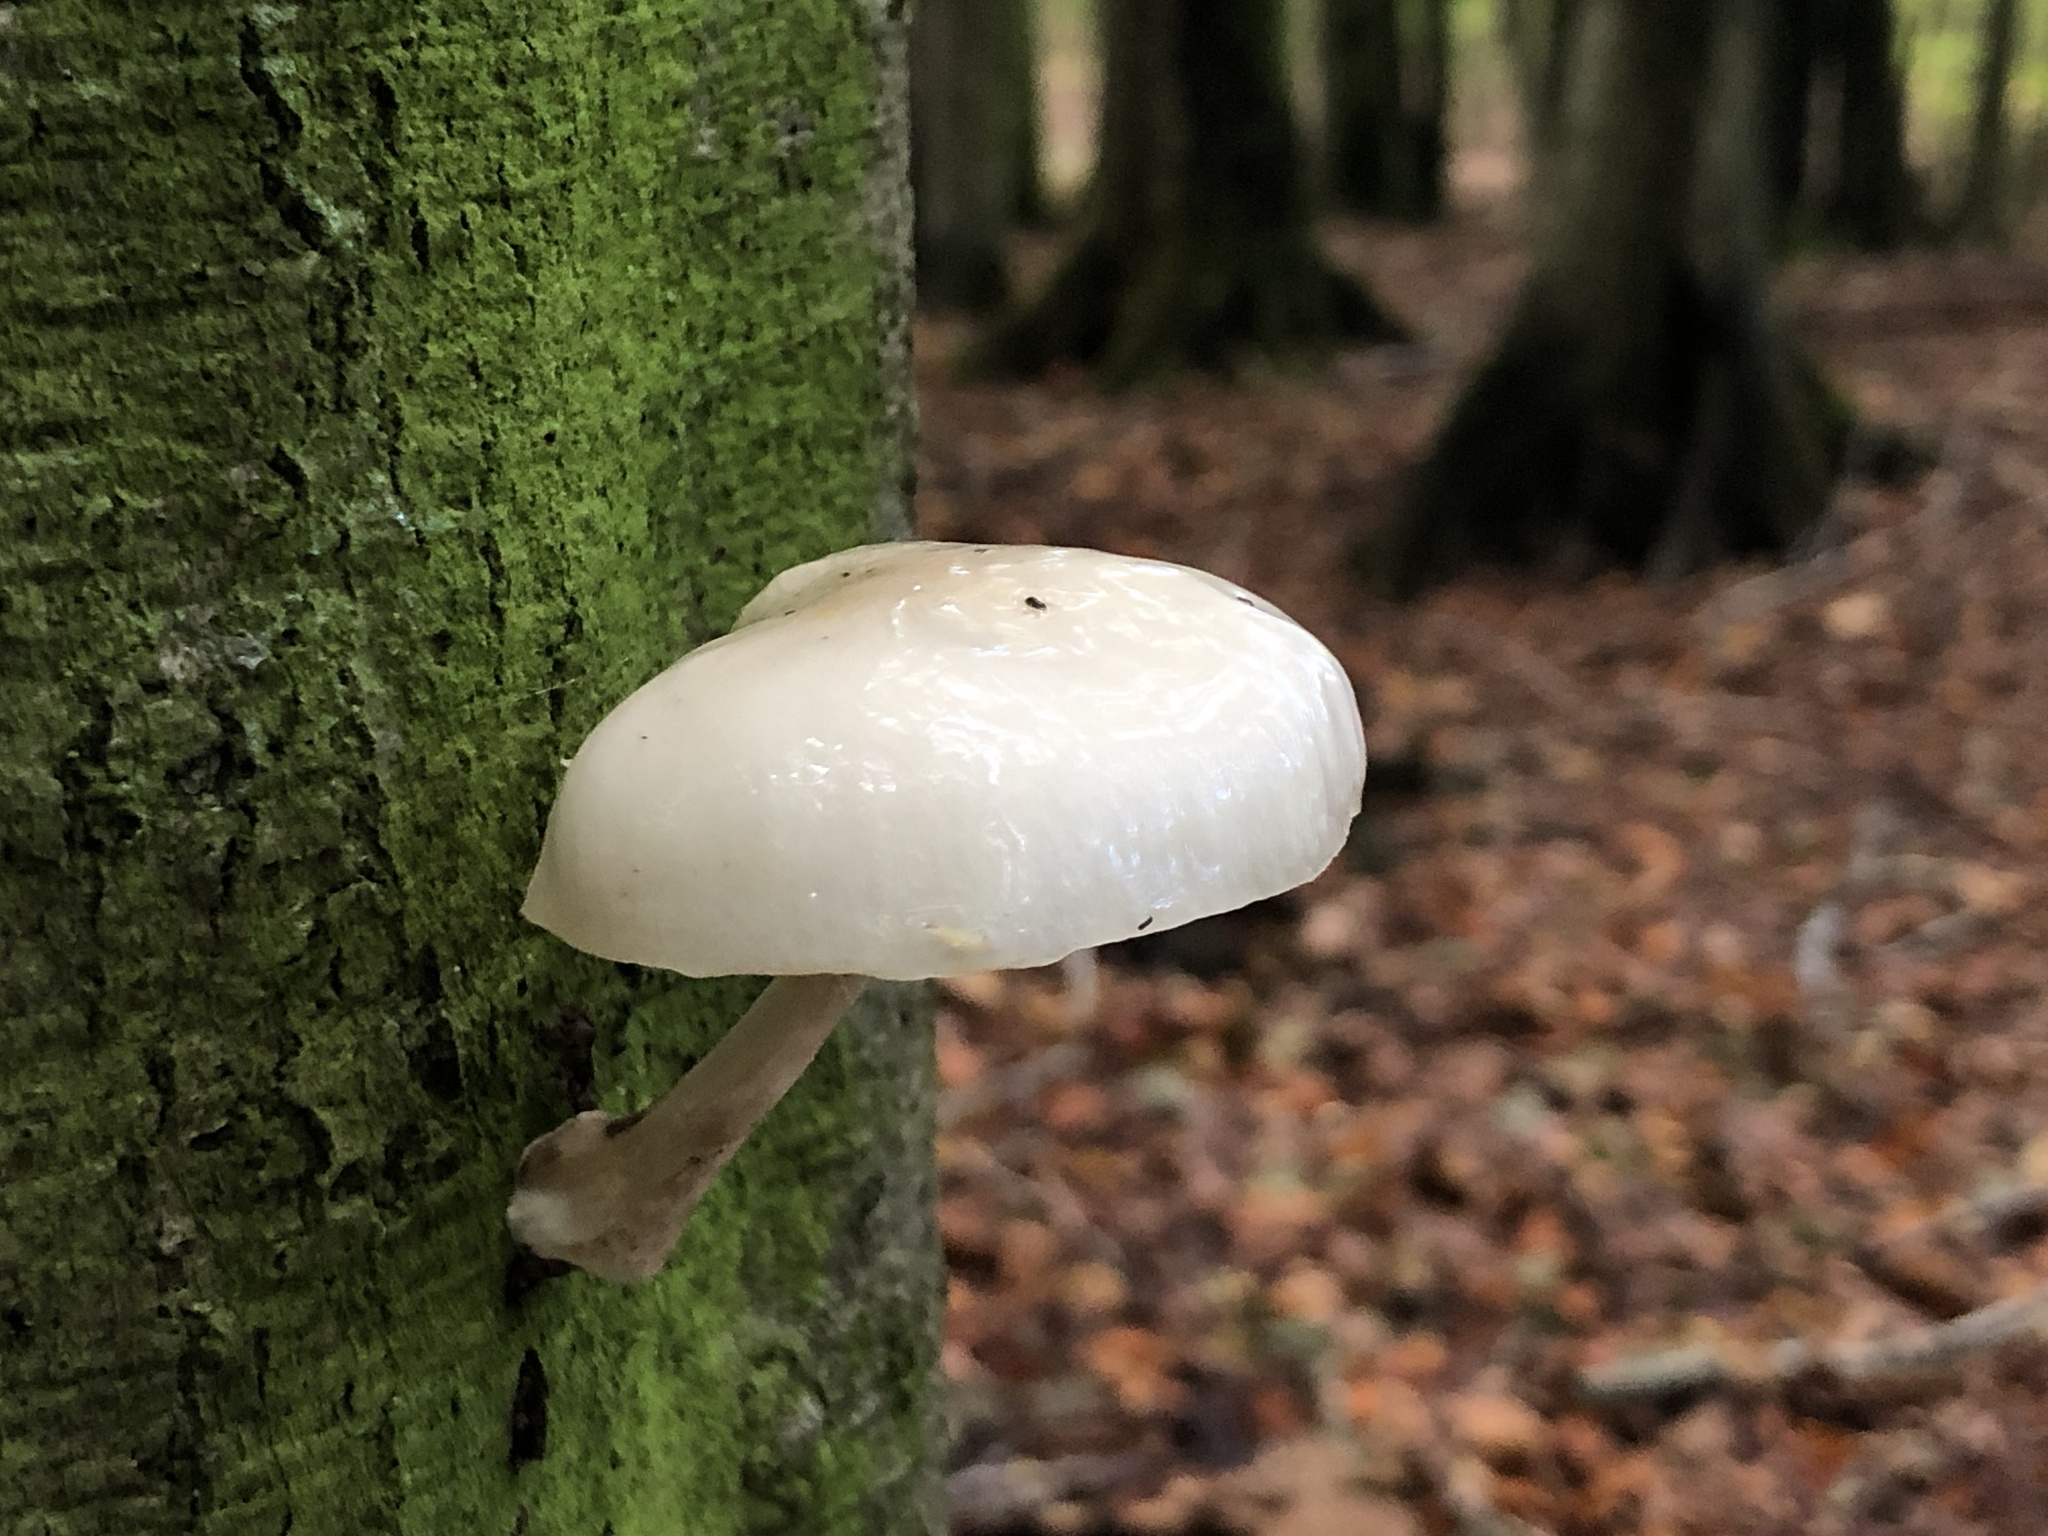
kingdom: Fungi
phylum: Basidiomycota
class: Agaricomycetes
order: Agaricales
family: Physalacriaceae
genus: Mucidula
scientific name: Mucidula mucida
